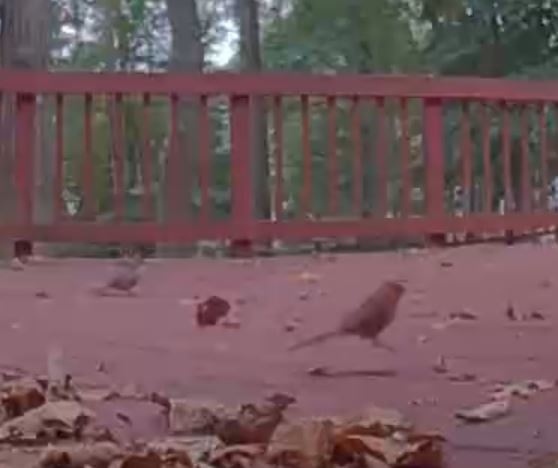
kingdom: Animalia
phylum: Chordata
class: Aves
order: Passeriformes
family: Cardinalidae
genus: Cardinalis
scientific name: Cardinalis cardinalis
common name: Northern cardinal
